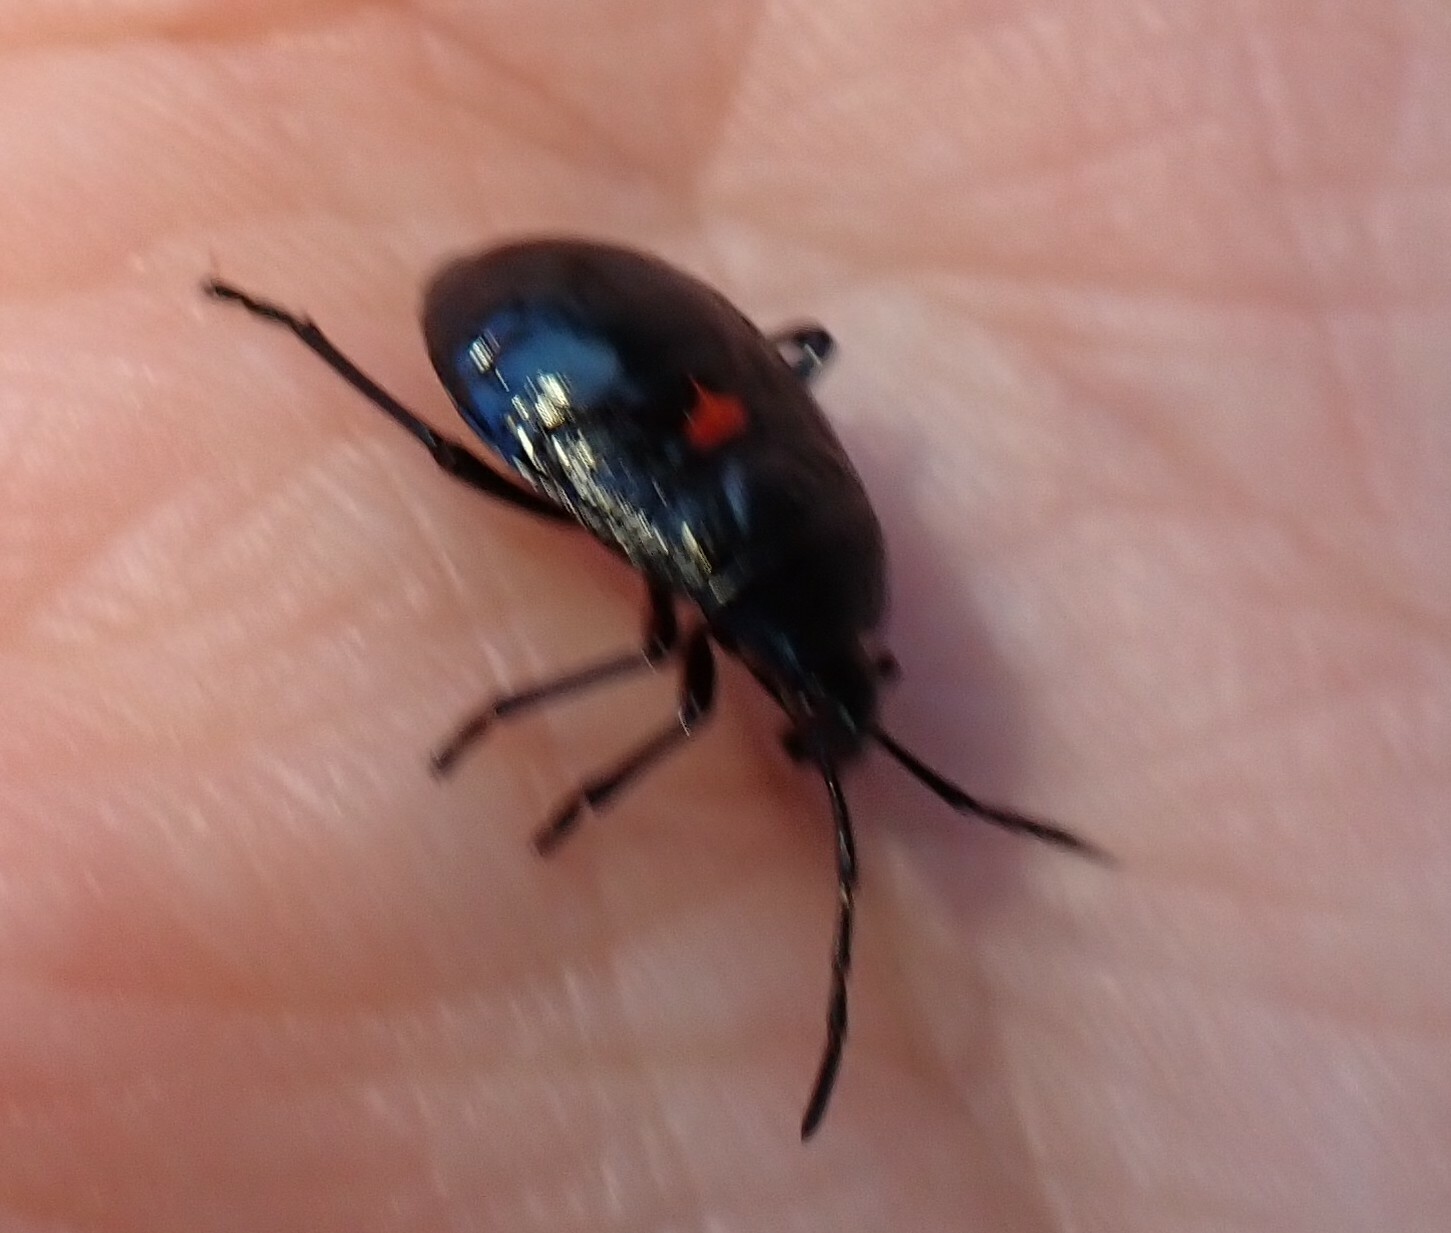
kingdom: Animalia
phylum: Arthropoda
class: Insecta
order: Hemiptera
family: Largidae
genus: Largus
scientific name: Largus californicus
